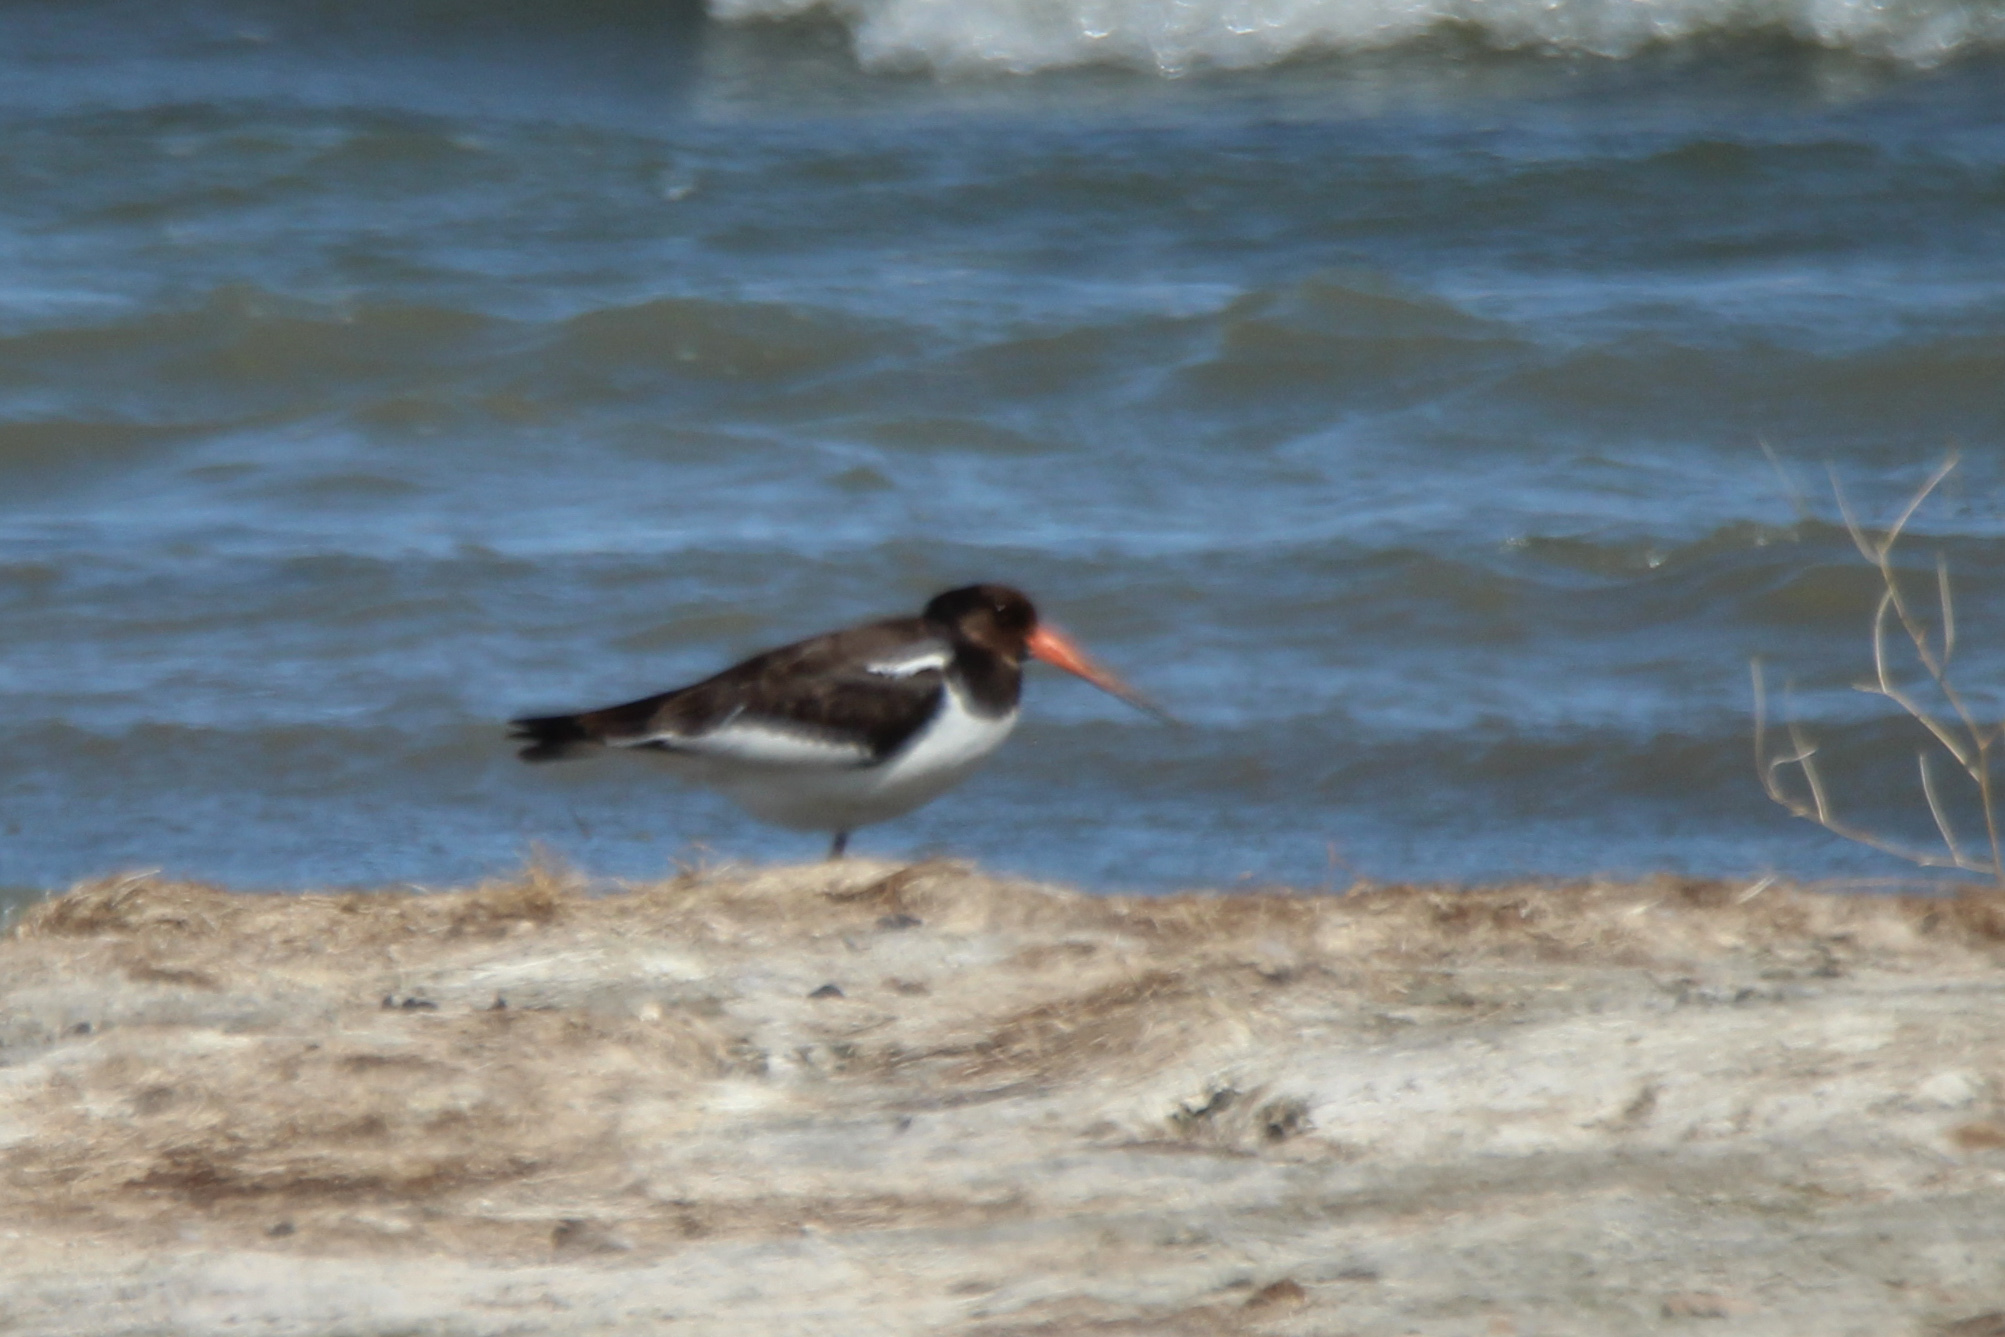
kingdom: Animalia
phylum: Chordata
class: Aves
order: Charadriiformes
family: Haematopodidae
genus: Haematopus
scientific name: Haematopus ostralegus
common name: Eurasian oystercatcher
